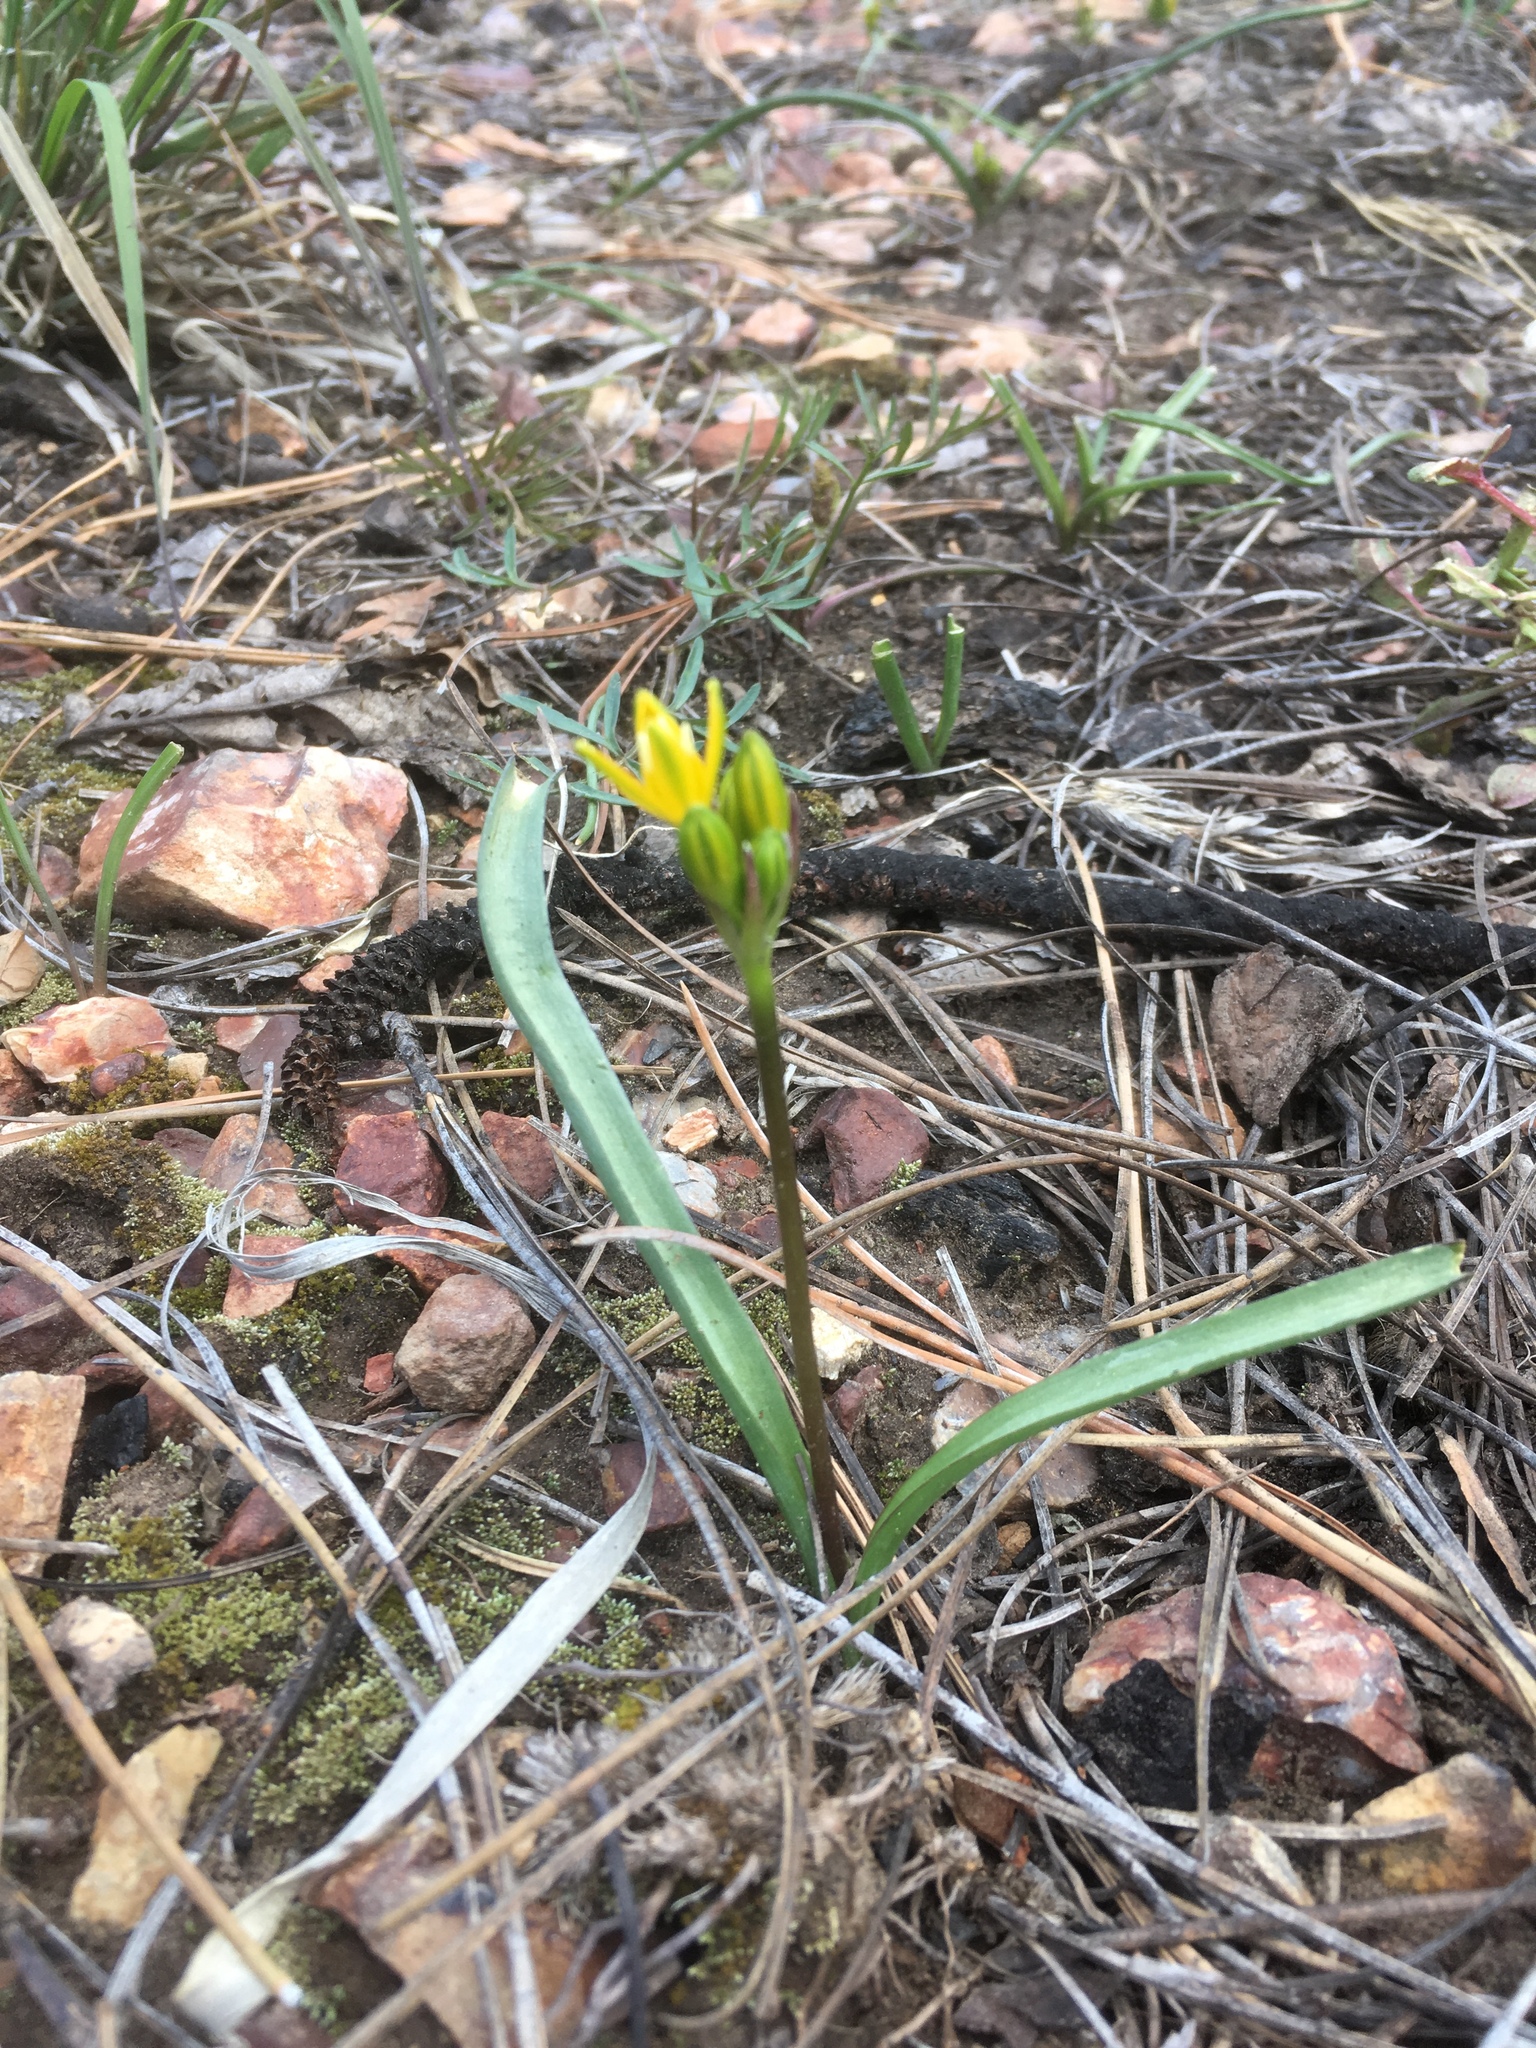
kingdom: Plantae
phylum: Tracheophyta
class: Liliopsida
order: Asparagales
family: Asparagaceae
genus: Triteleia
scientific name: Triteleia lemmoniae
